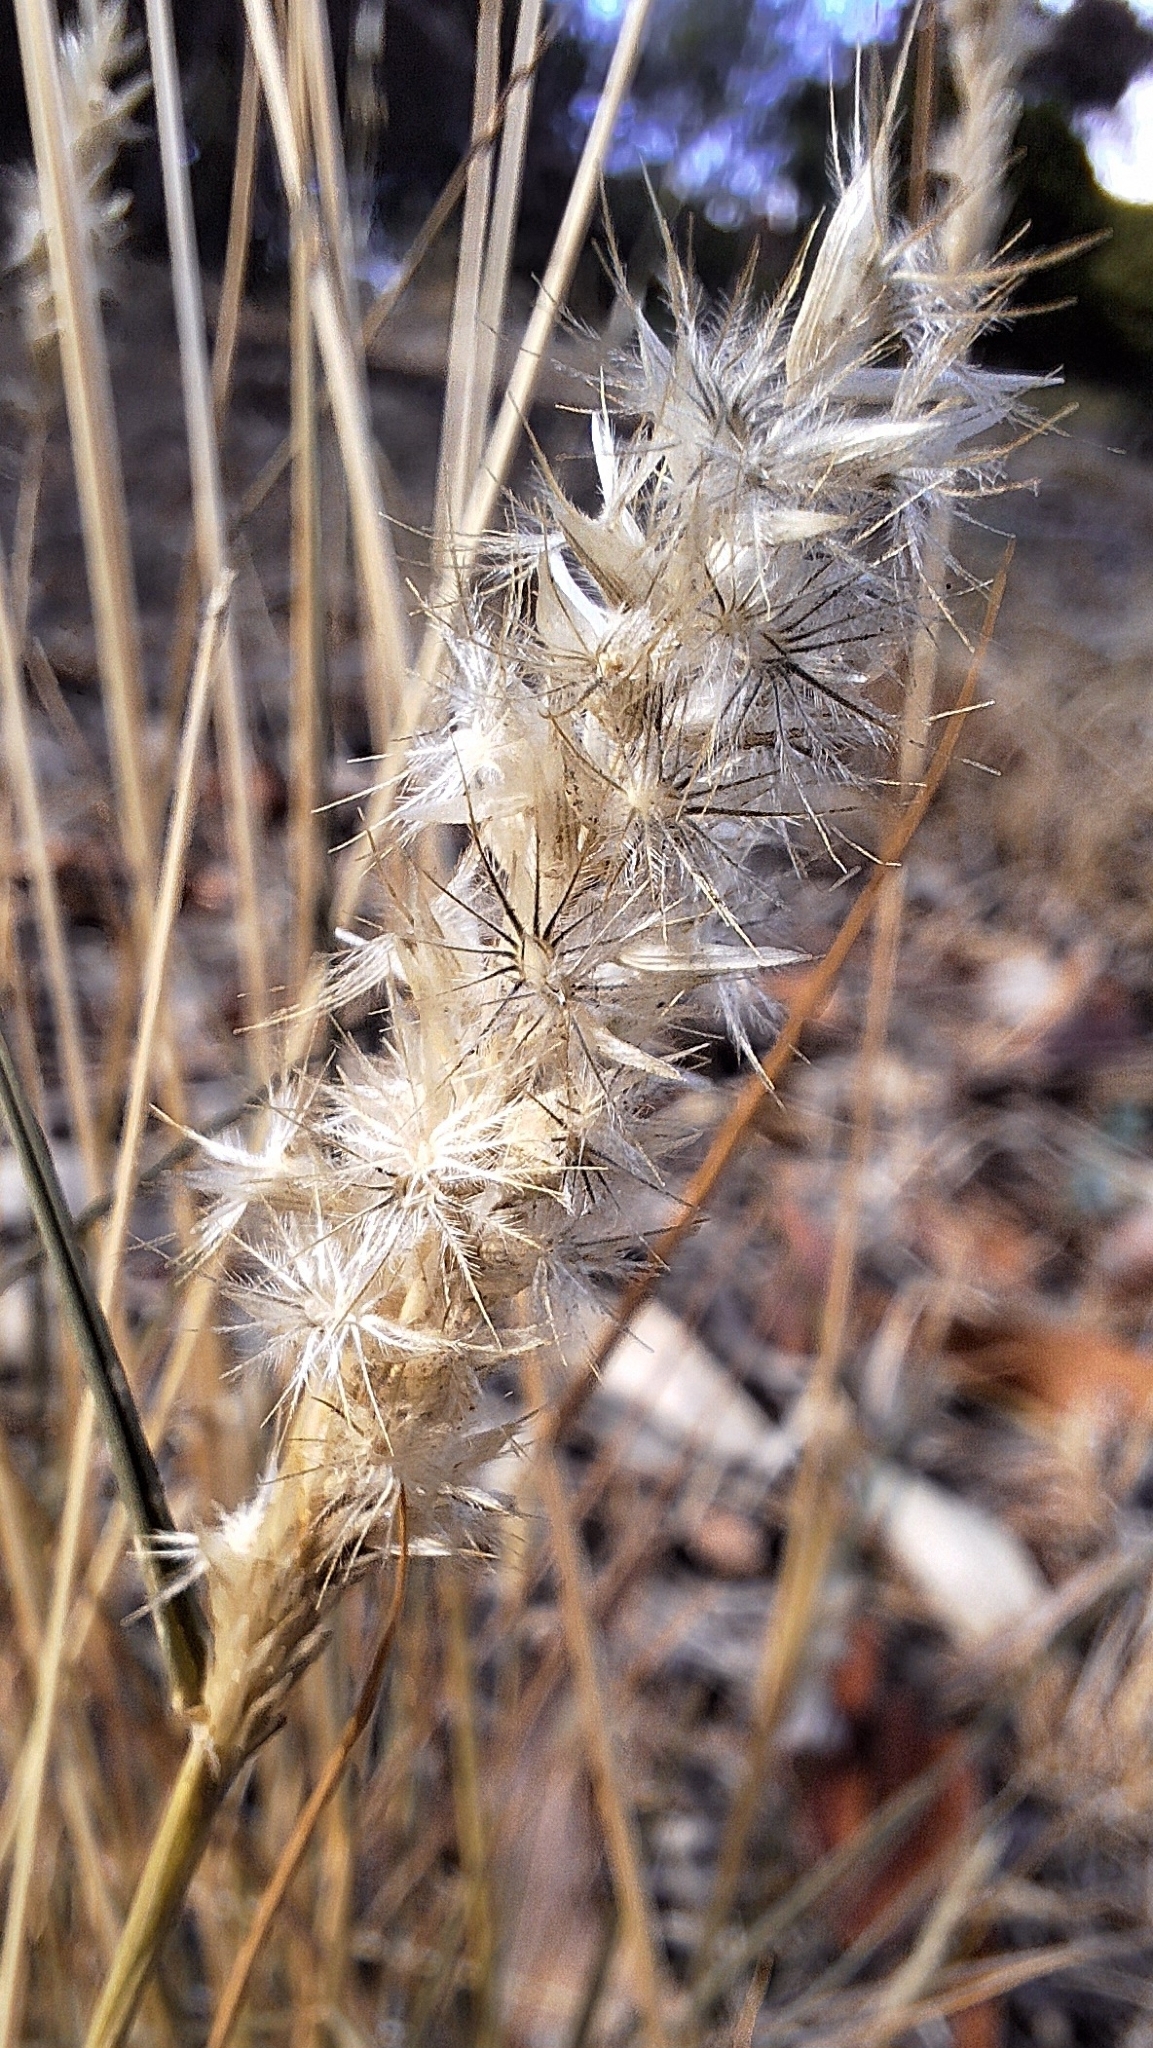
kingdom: Plantae
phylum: Tracheophyta
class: Liliopsida
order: Poales
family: Poaceae
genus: Enneapogon
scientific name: Enneapogon nigricans
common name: Pappus grass
